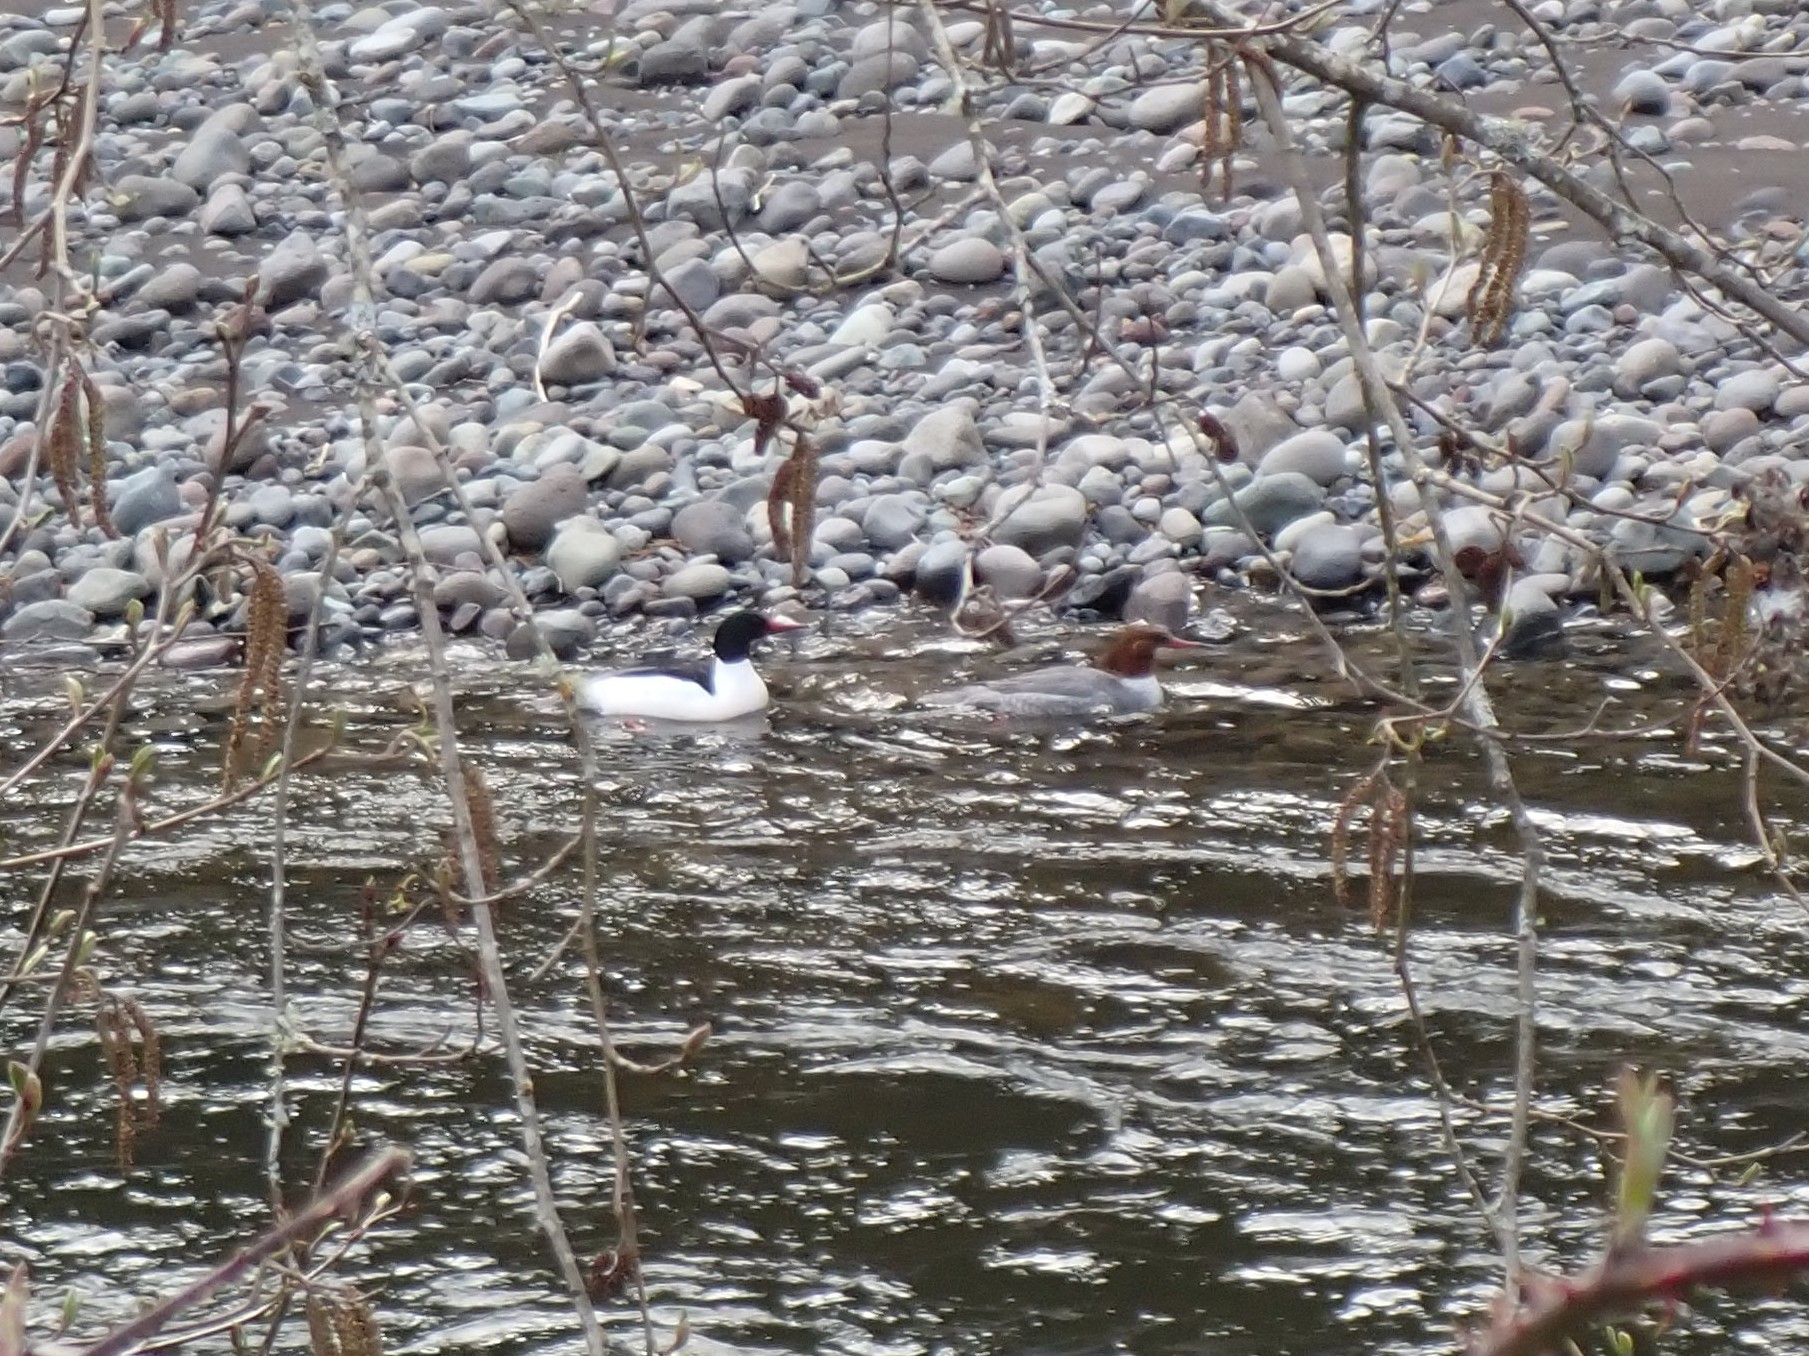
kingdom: Animalia
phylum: Chordata
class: Aves
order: Anseriformes
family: Anatidae
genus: Mergus
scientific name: Mergus merganser
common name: Common merganser
